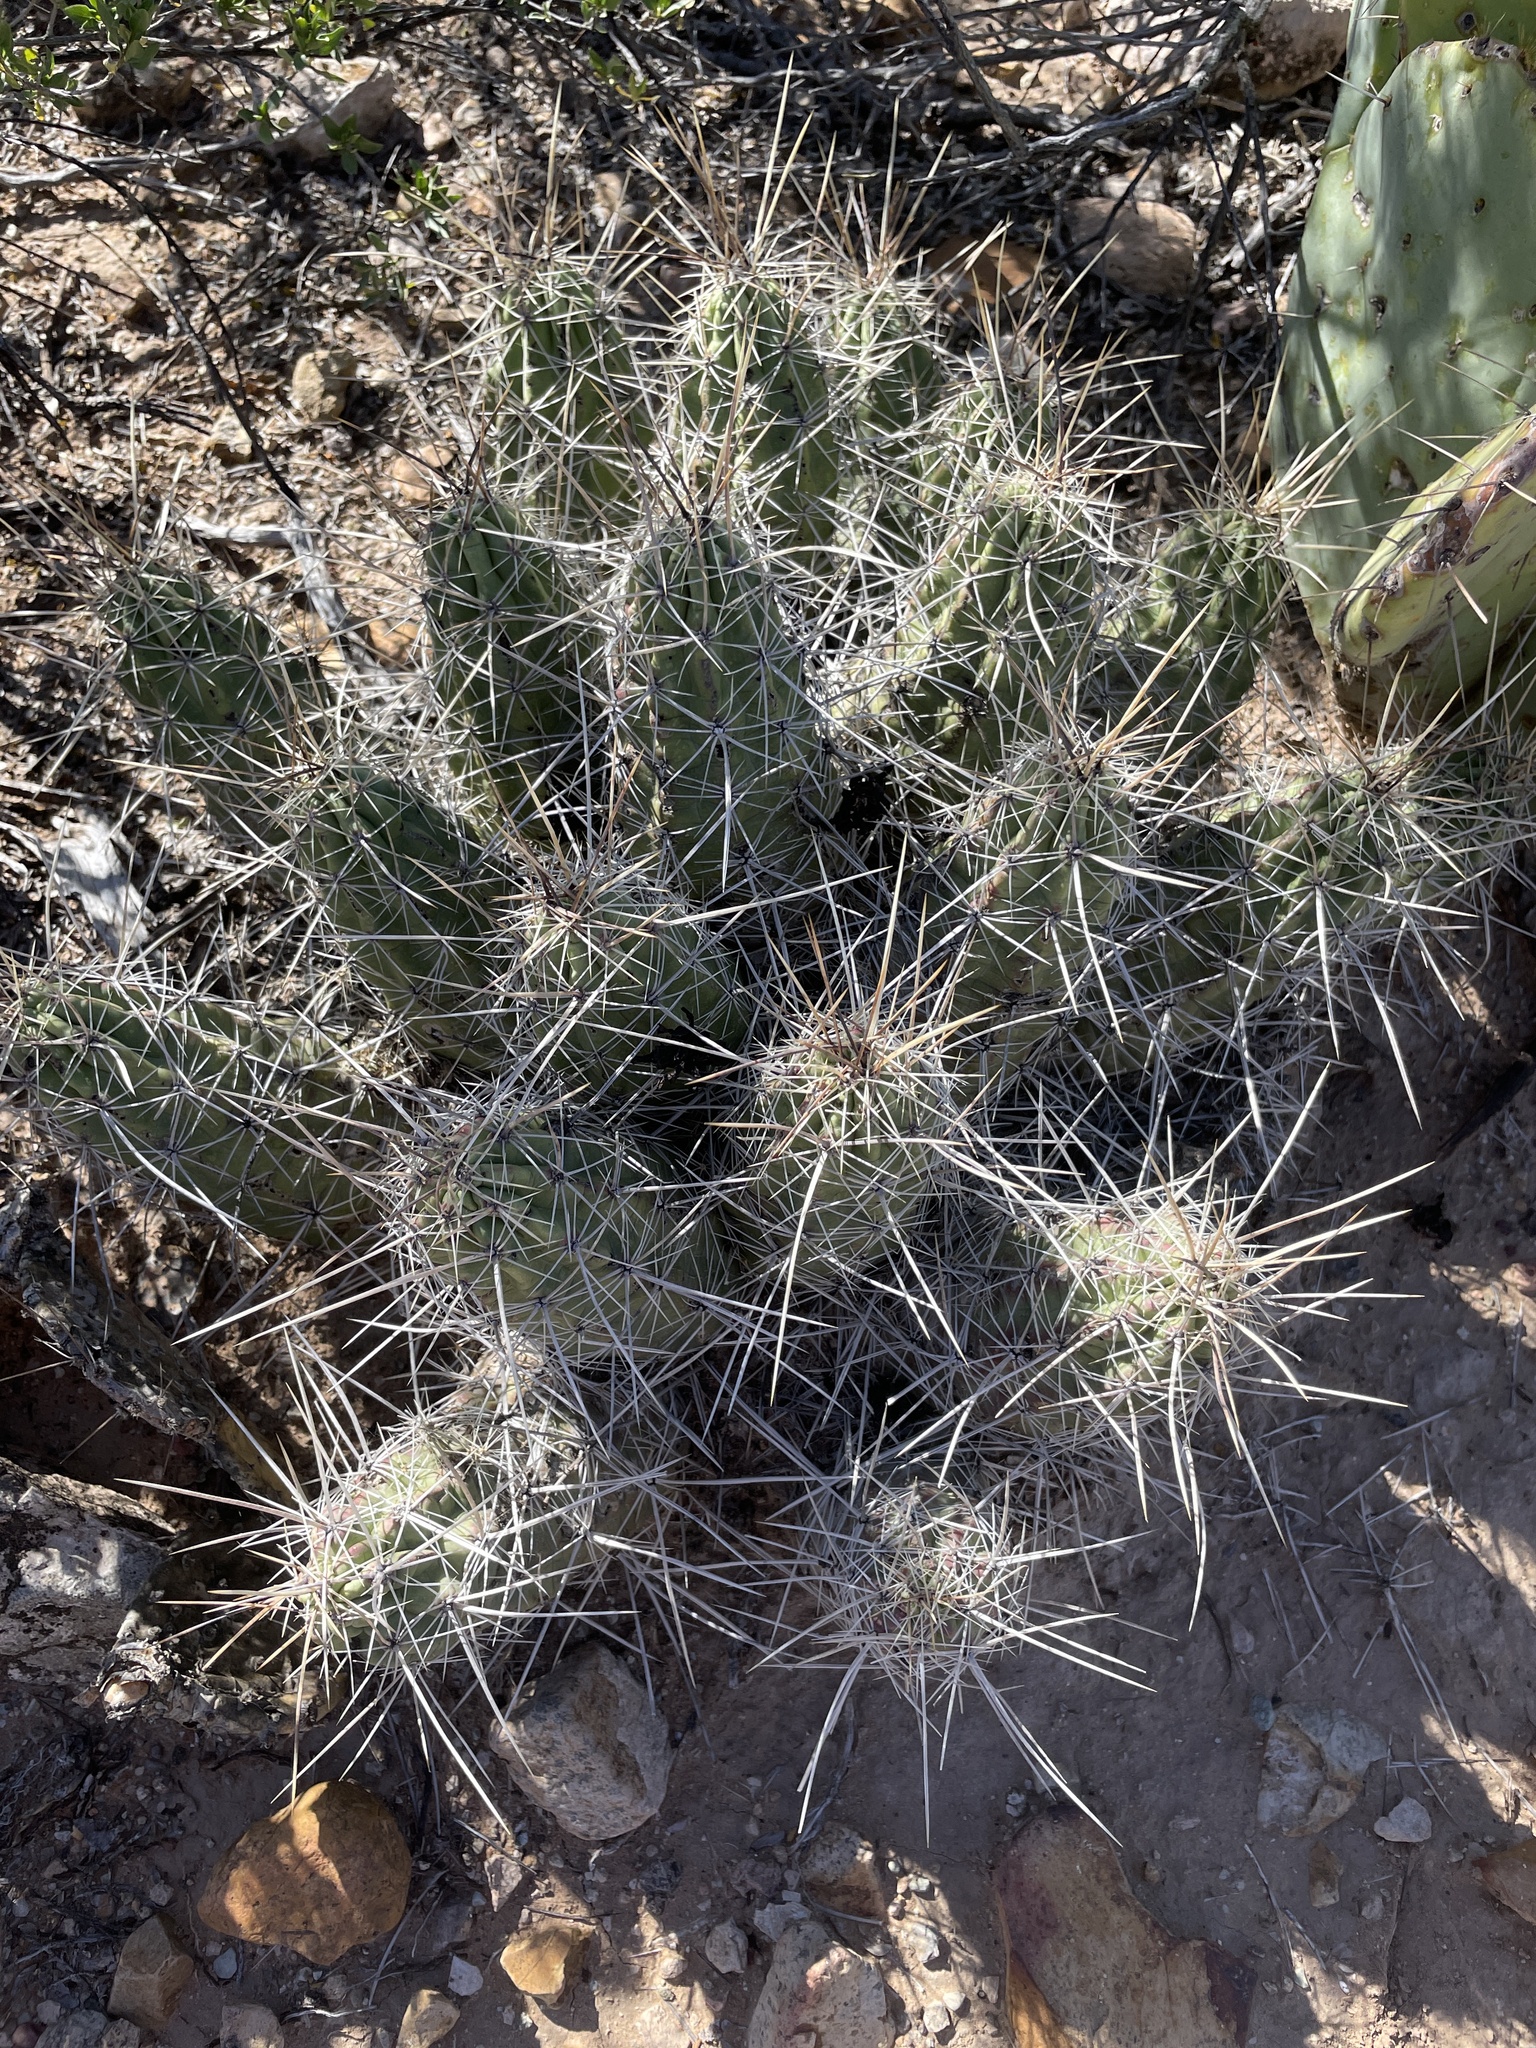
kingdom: Plantae
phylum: Tracheophyta
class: Magnoliopsida
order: Caryophyllales
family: Cactaceae
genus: Echinocereus
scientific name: Echinocereus enneacanthus
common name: Pitaya
